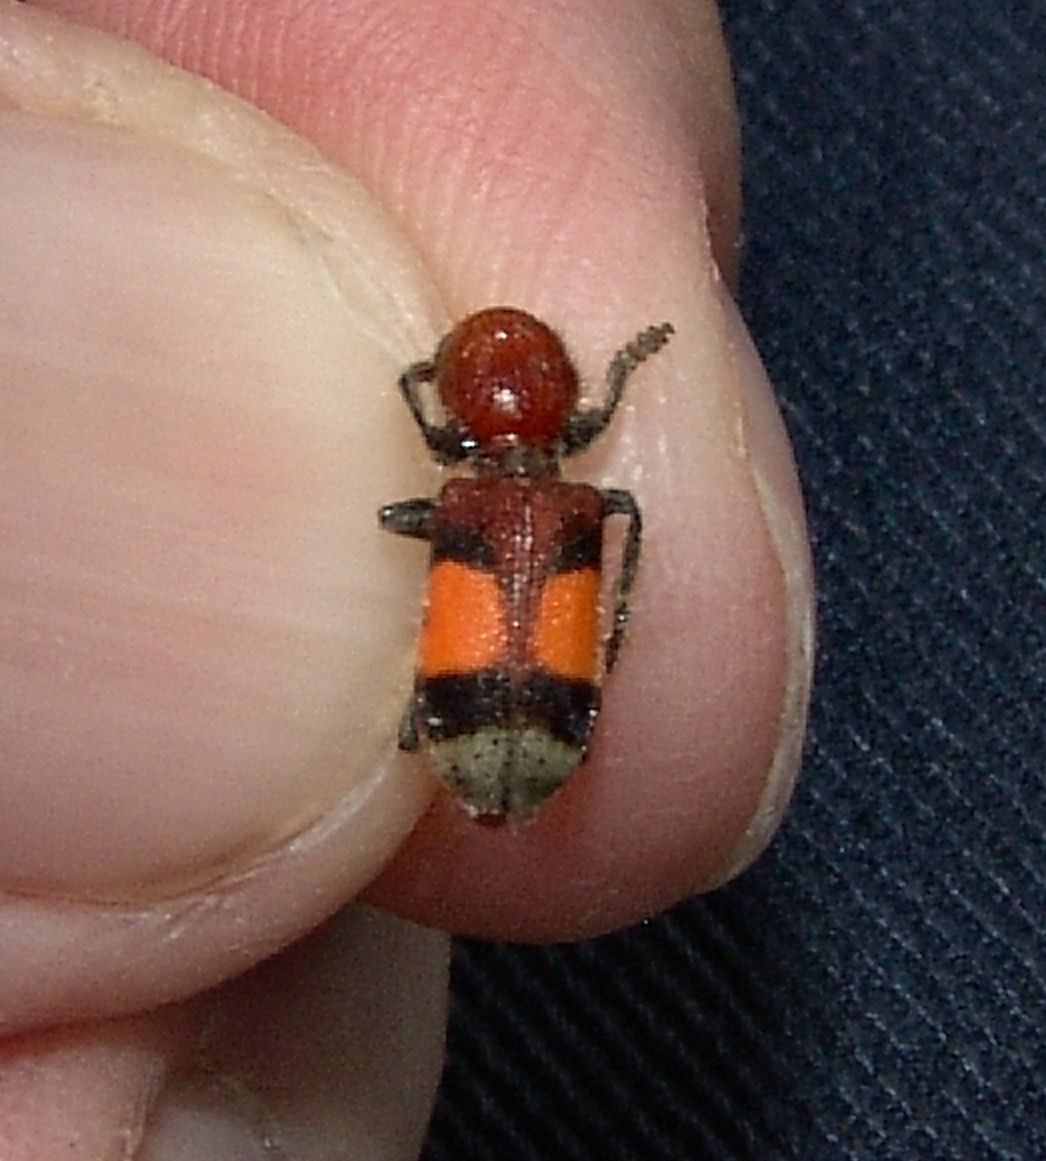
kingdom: Animalia
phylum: Arthropoda
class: Insecta
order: Coleoptera
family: Cleridae
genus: Enoclerus
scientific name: Enoclerus ichneumoneus
